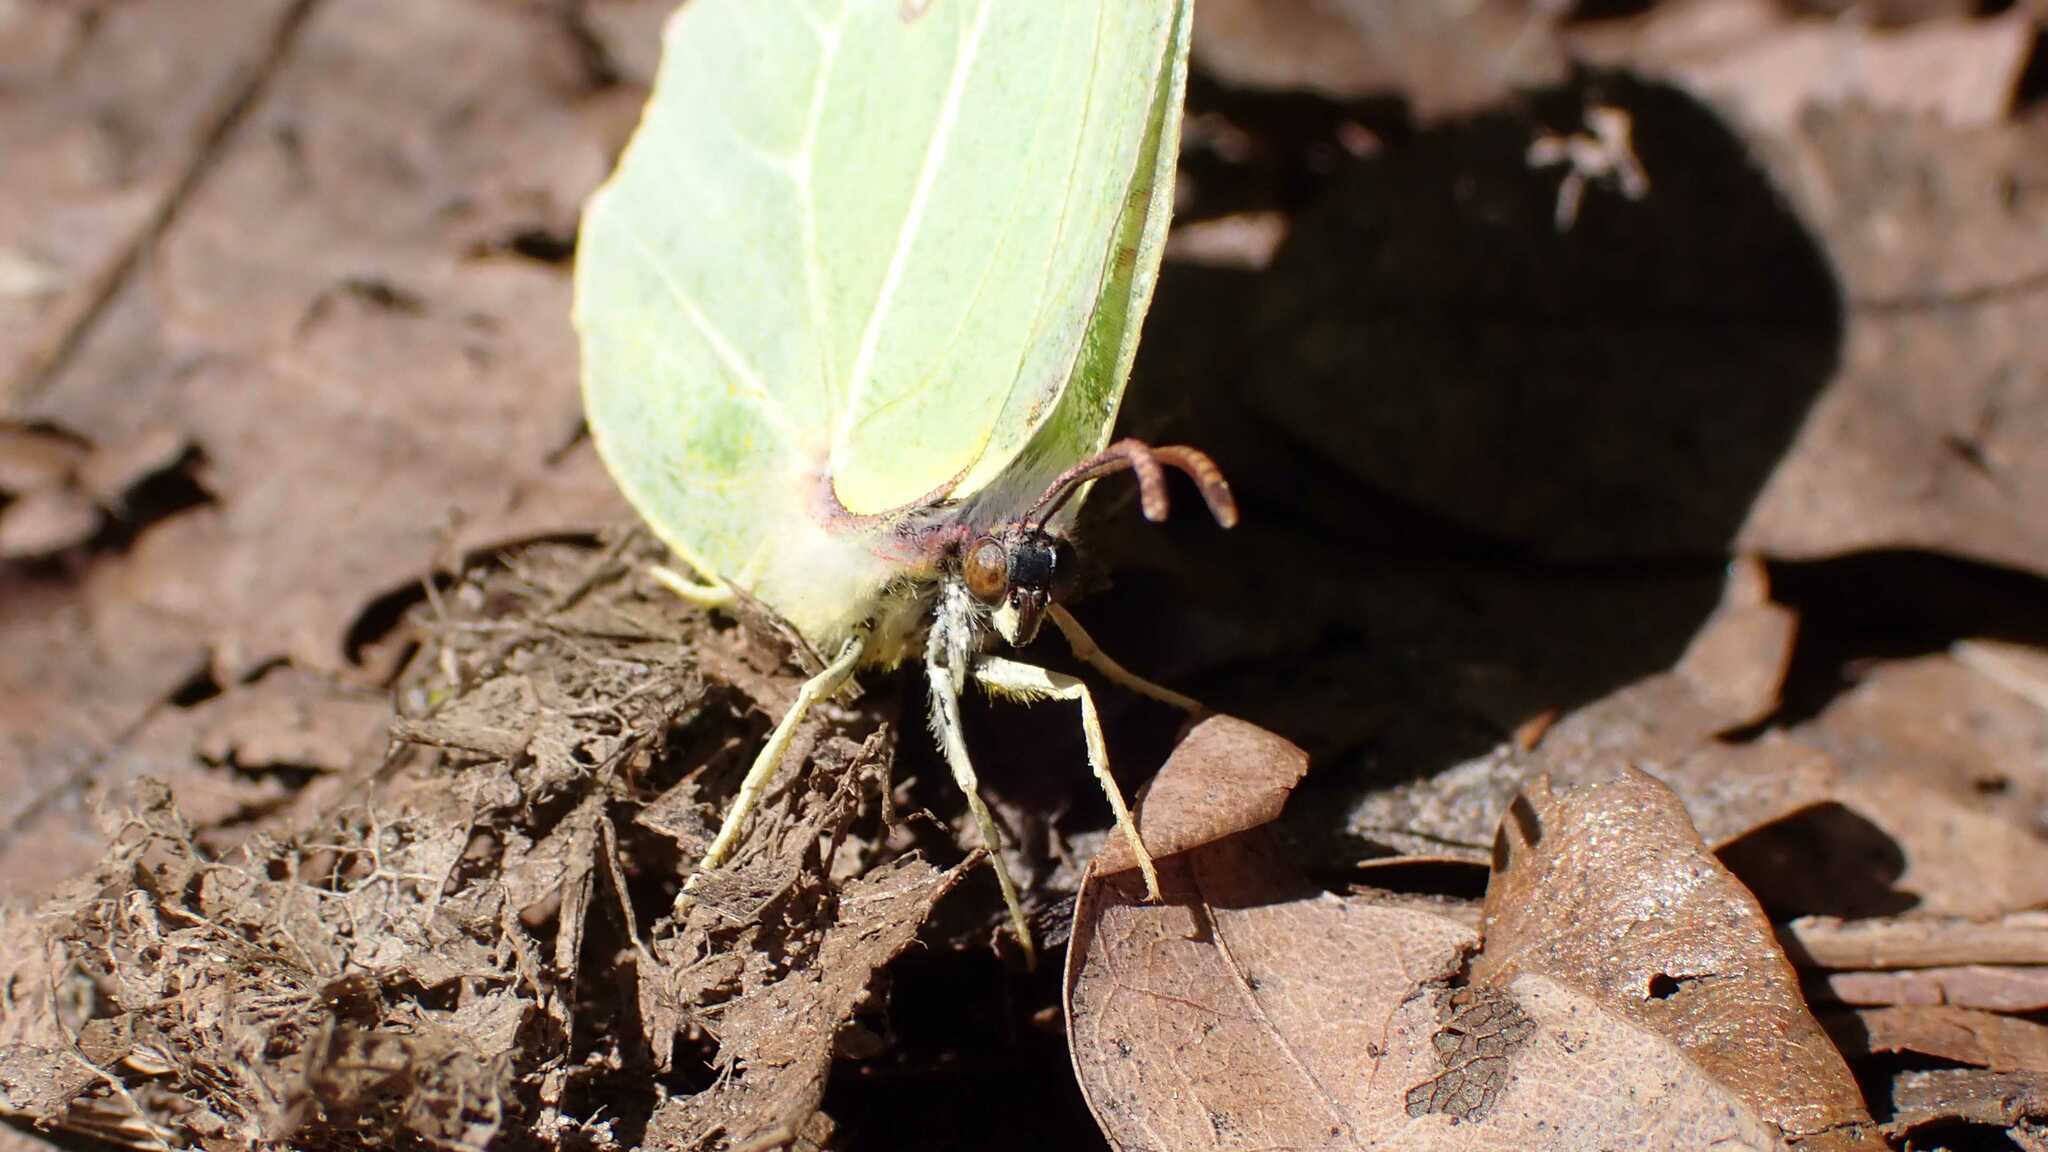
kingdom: Animalia
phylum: Arthropoda
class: Insecta
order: Lepidoptera
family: Pieridae
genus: Gonepteryx
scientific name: Gonepteryx rhamni
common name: Brimstone
